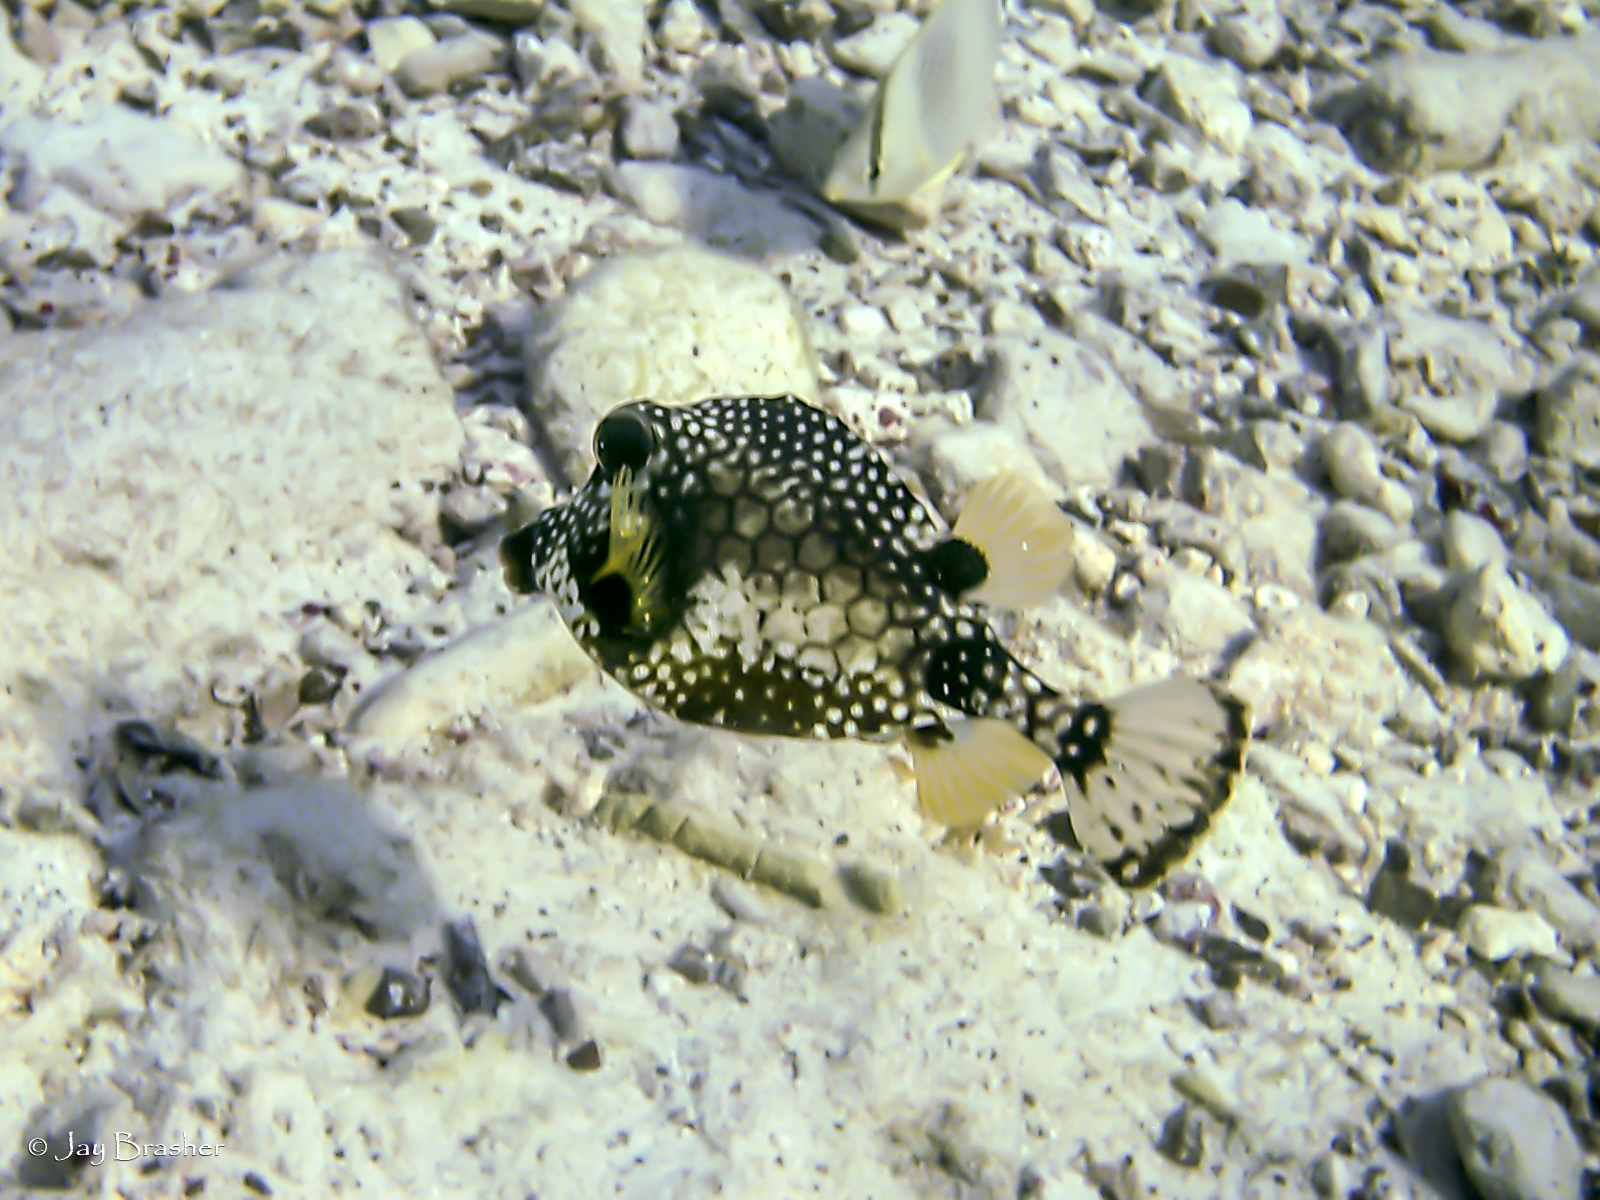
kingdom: Animalia
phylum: Chordata
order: Tetraodontiformes
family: Ostraciidae
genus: Lactophrys
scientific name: Lactophrys triqueter
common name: Smooth trunkfish
